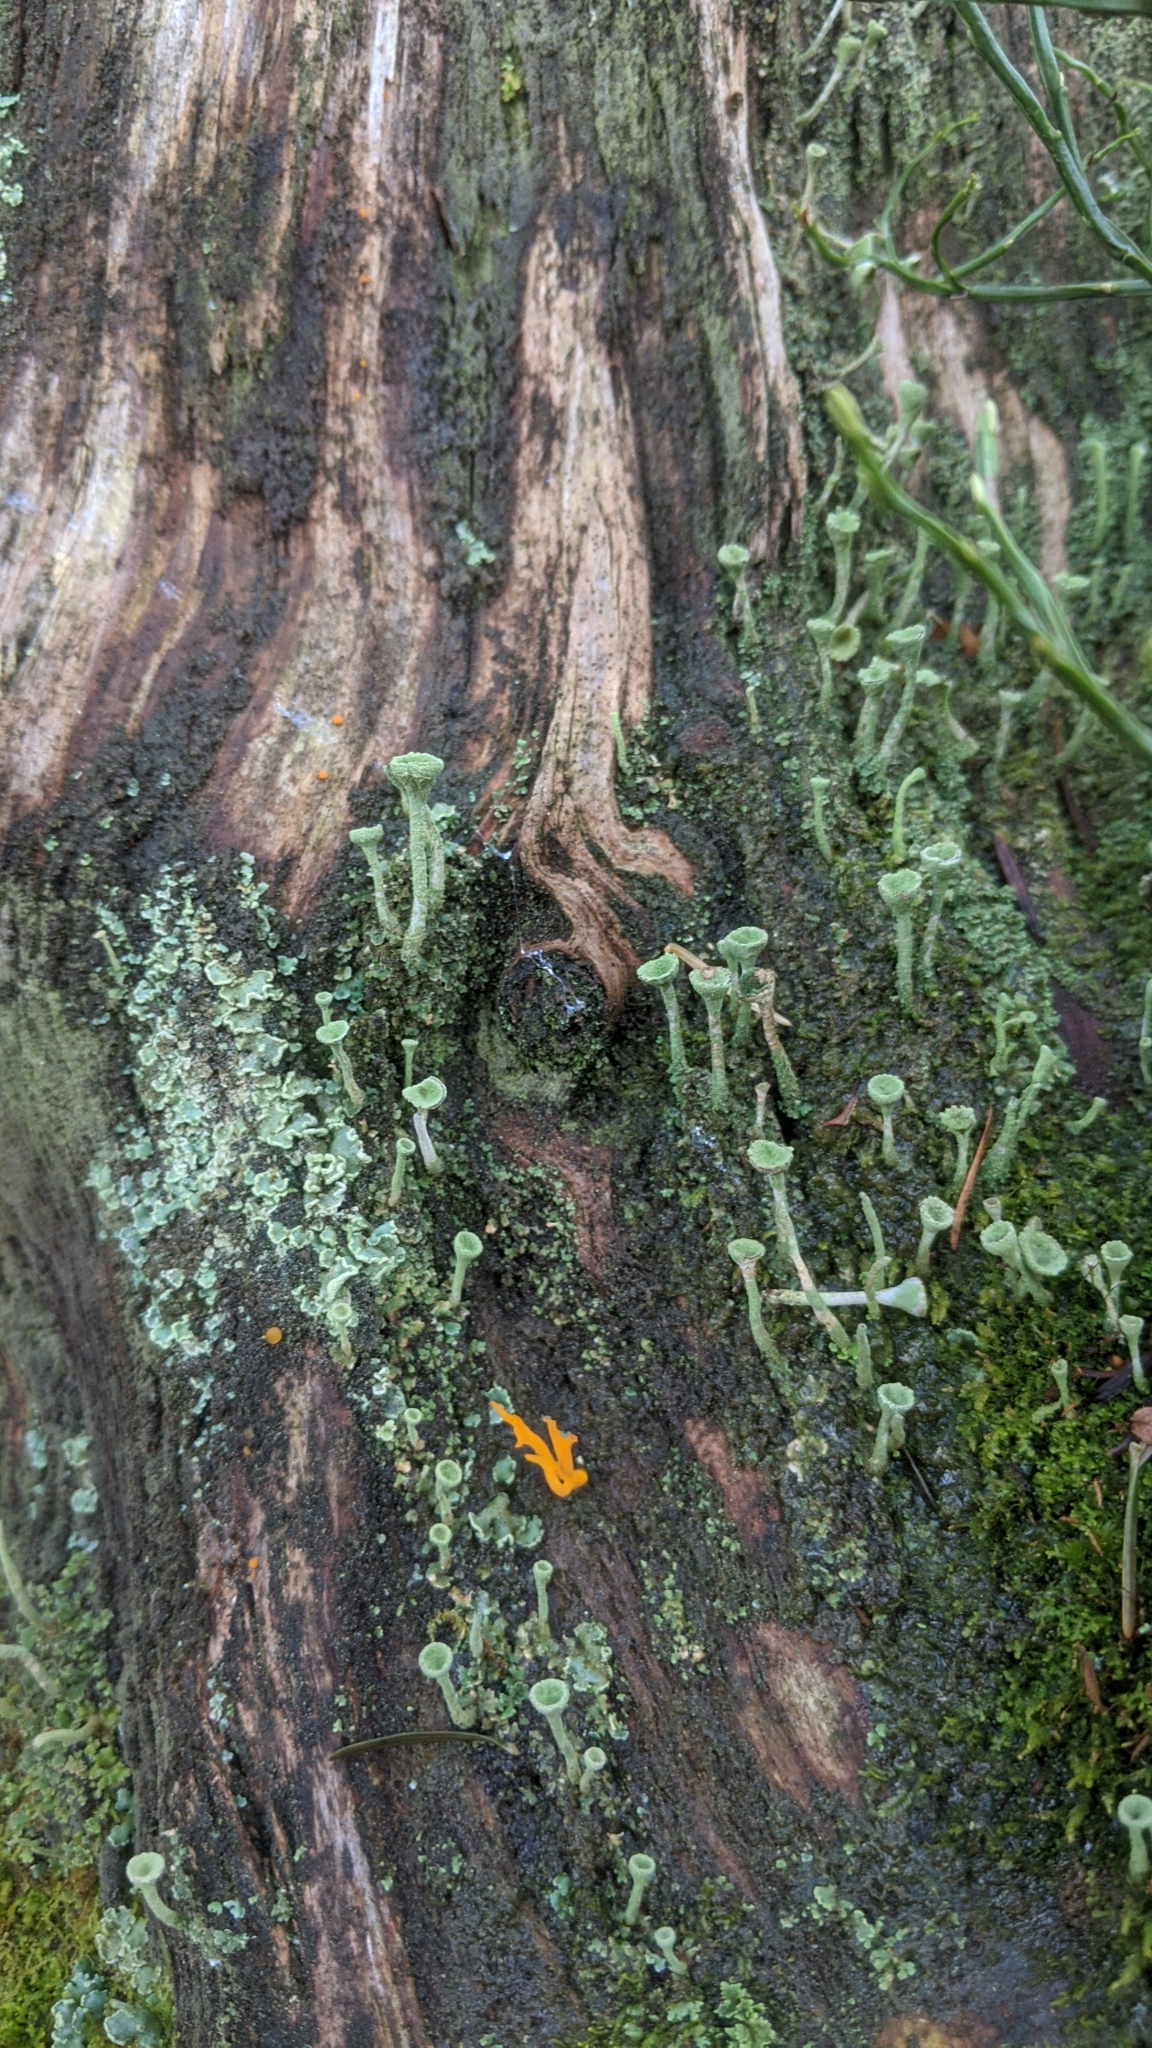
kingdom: Fungi
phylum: Ascomycota
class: Lecanoromycetes
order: Lecanorales
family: Cladoniaceae
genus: Cladonia
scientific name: Cladonia fimbriata
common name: Powdered trumpet lichen
